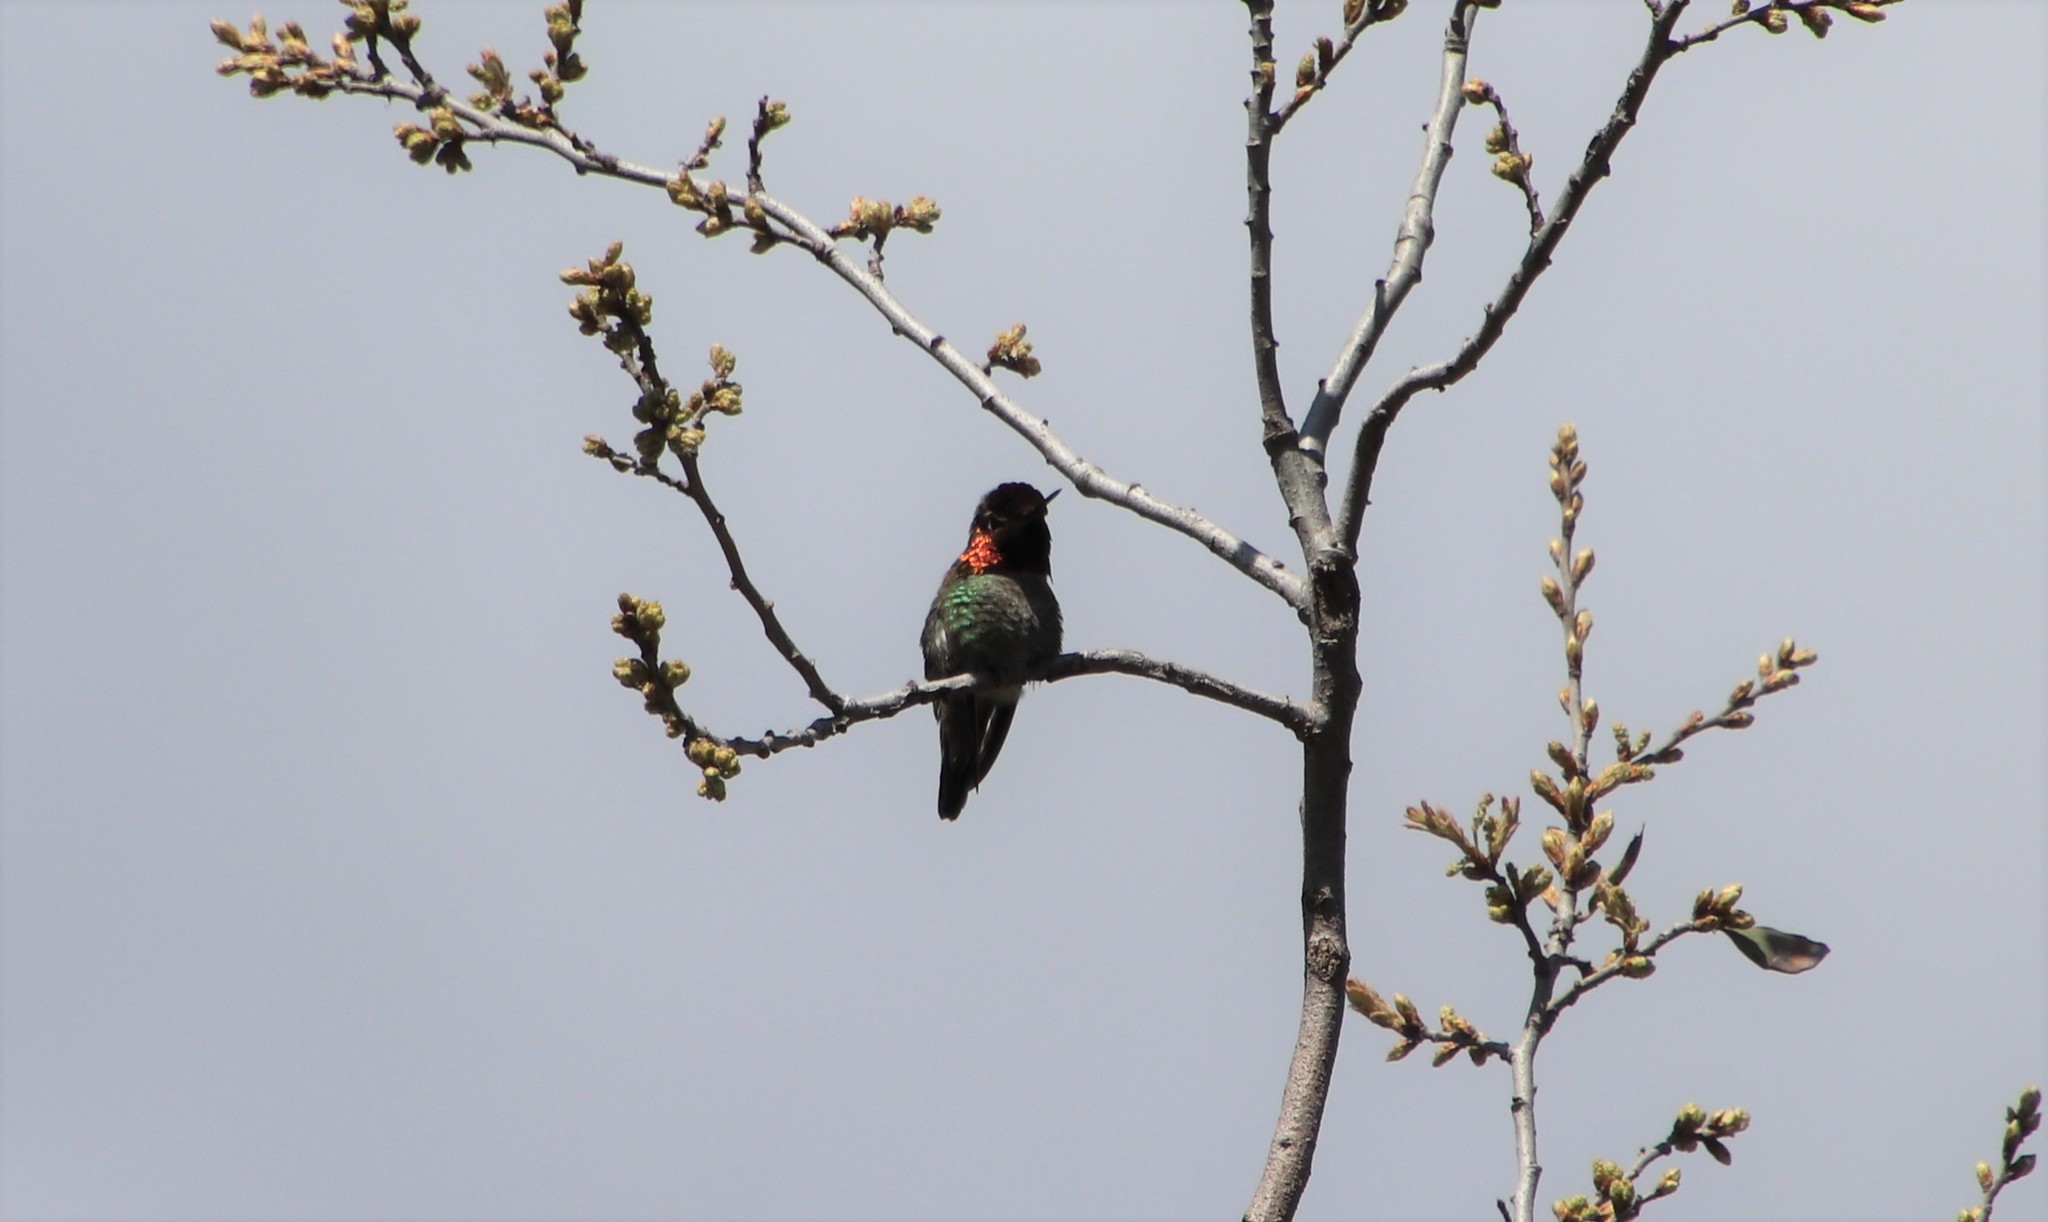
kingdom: Animalia
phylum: Chordata
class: Aves
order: Apodiformes
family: Trochilidae
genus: Calypte
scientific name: Calypte anna
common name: Anna's hummingbird
